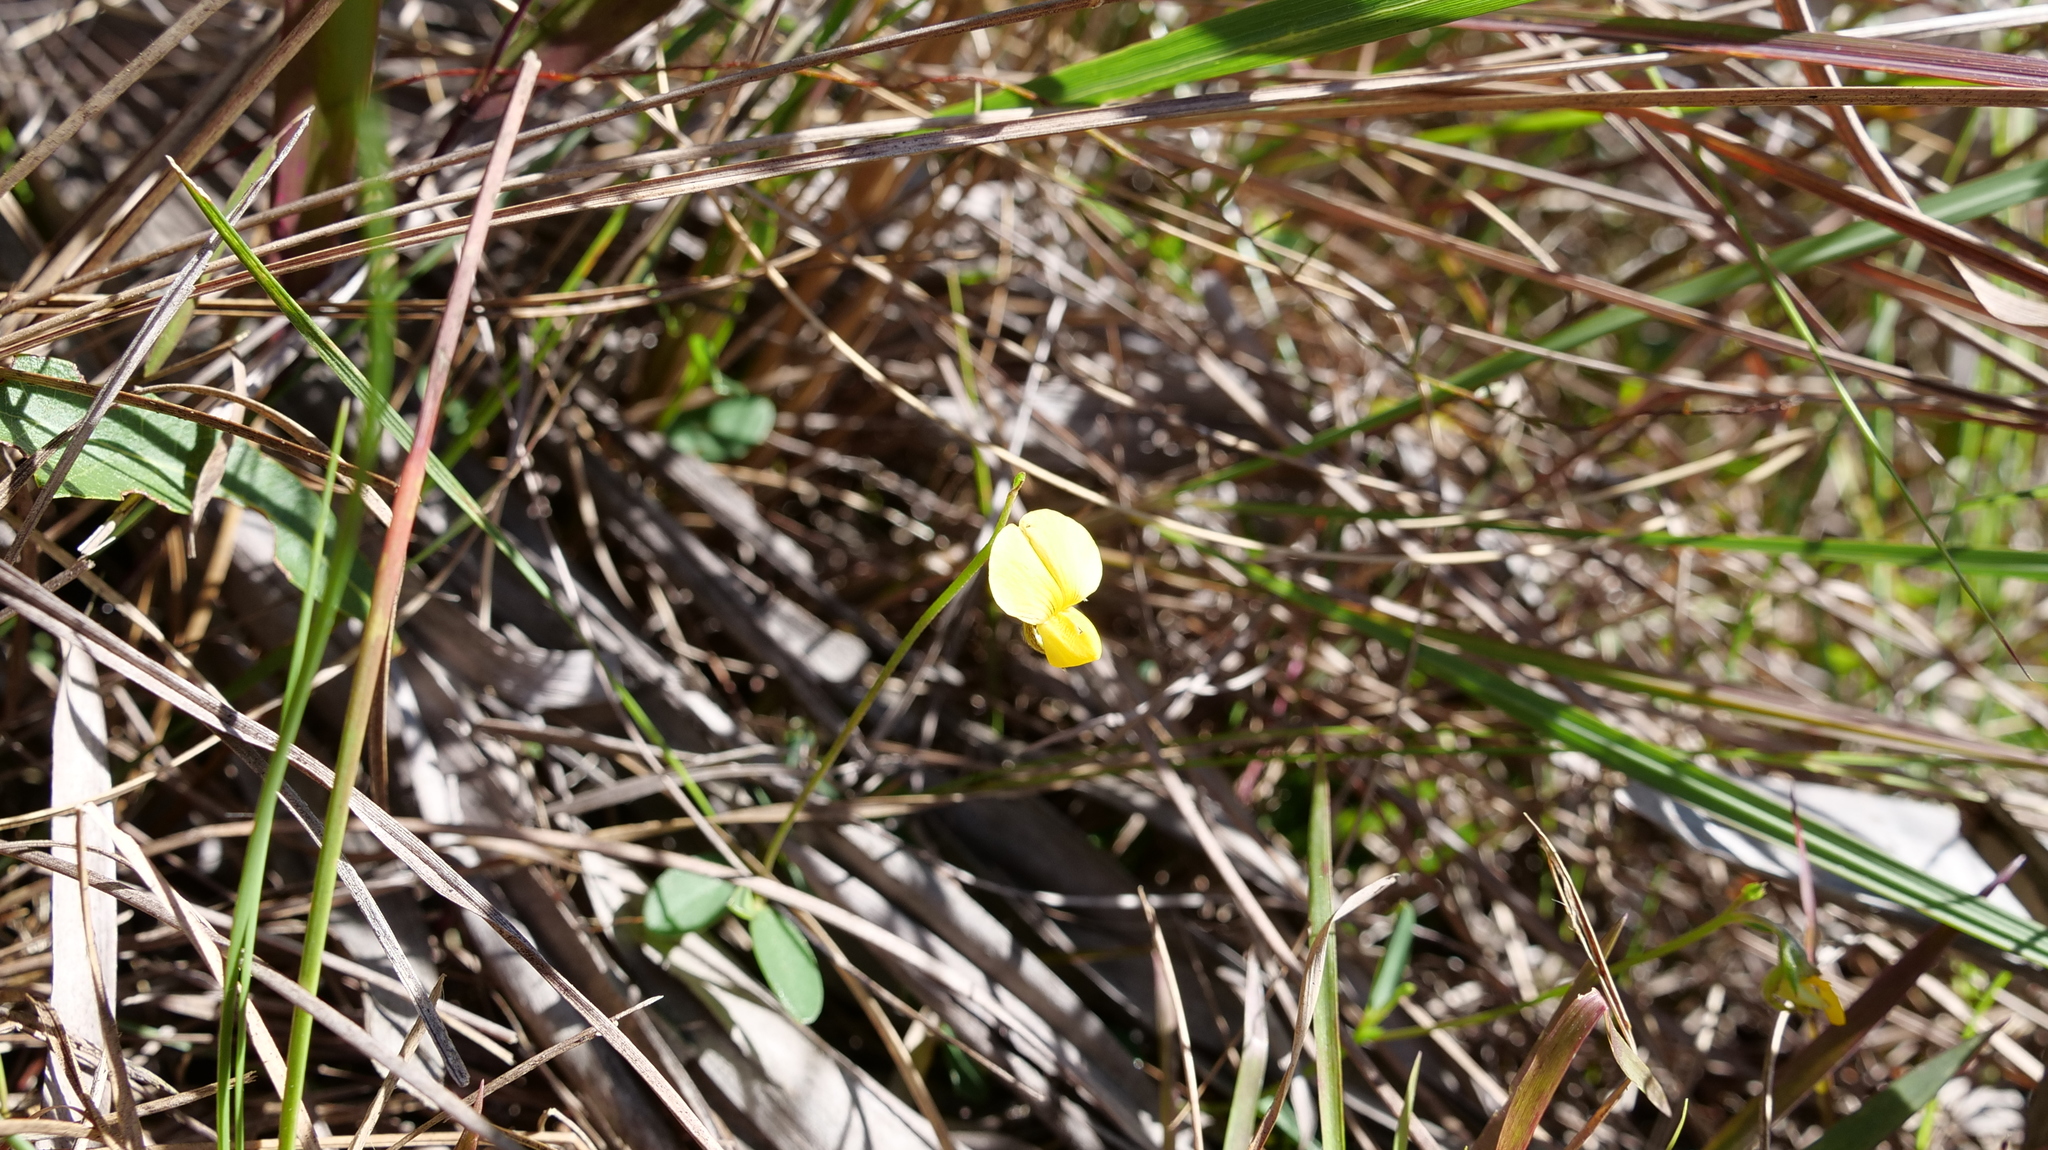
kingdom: Plantae
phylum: Tracheophyta
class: Magnoliopsida
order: Fabales
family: Fabaceae
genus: Crotalaria
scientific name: Crotalaria rotundifolia
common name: Prostrate rattlebox
